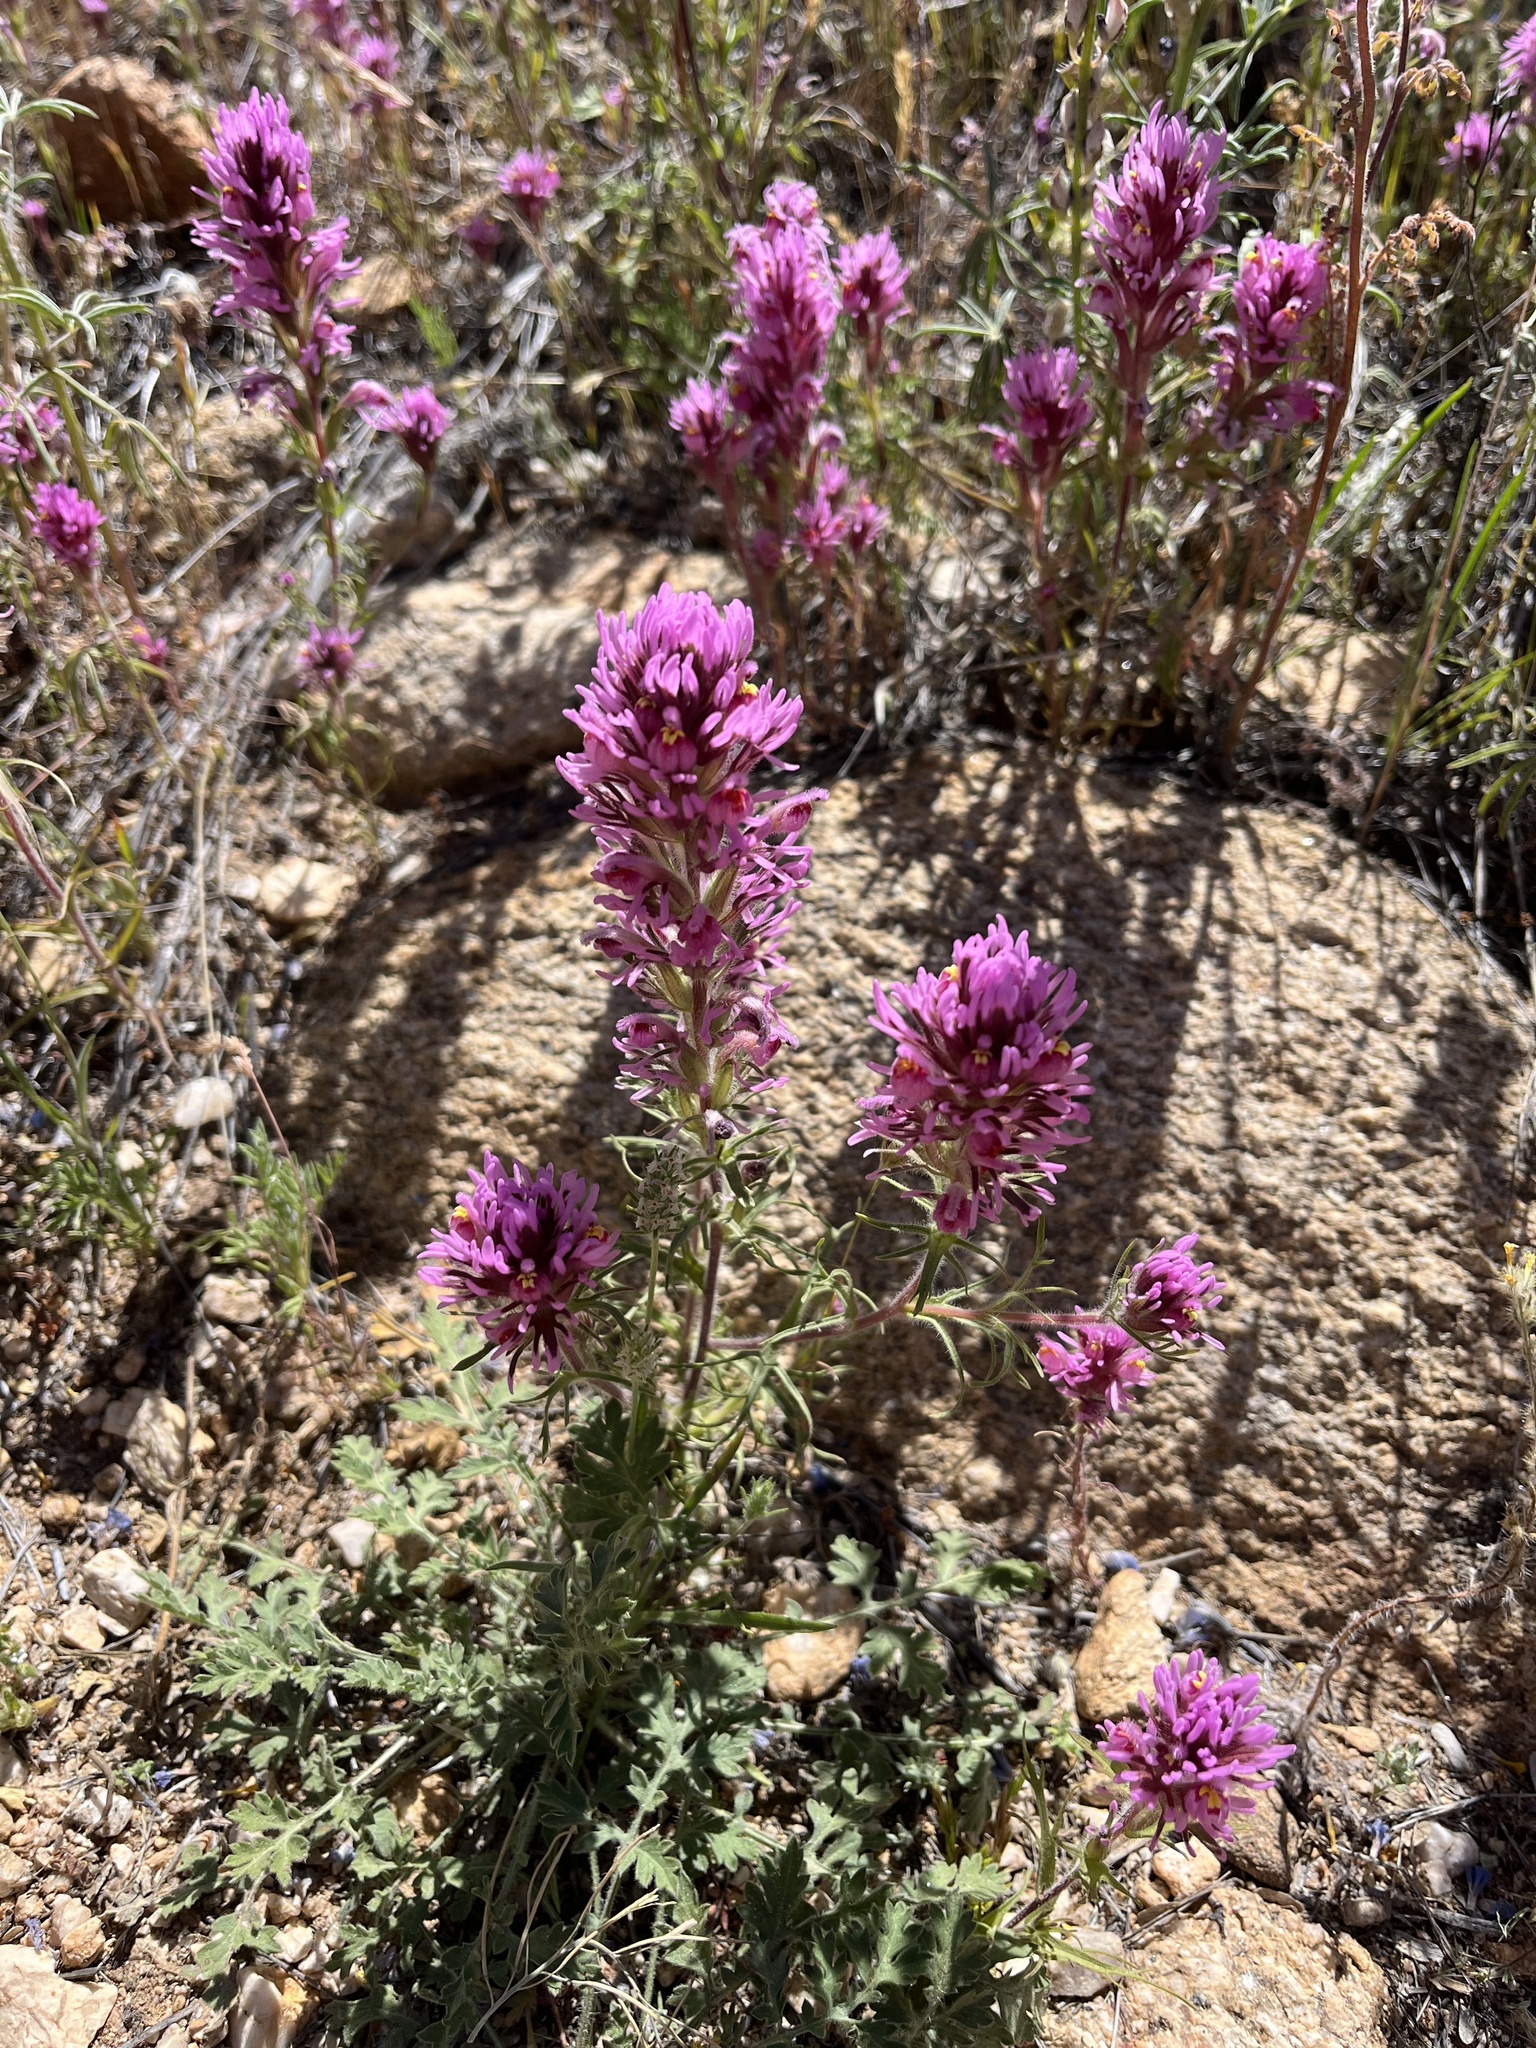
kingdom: Plantae
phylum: Tracheophyta
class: Magnoliopsida
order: Lamiales
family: Orobanchaceae
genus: Castilleja
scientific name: Castilleja exserta
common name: Purple owl-clover
